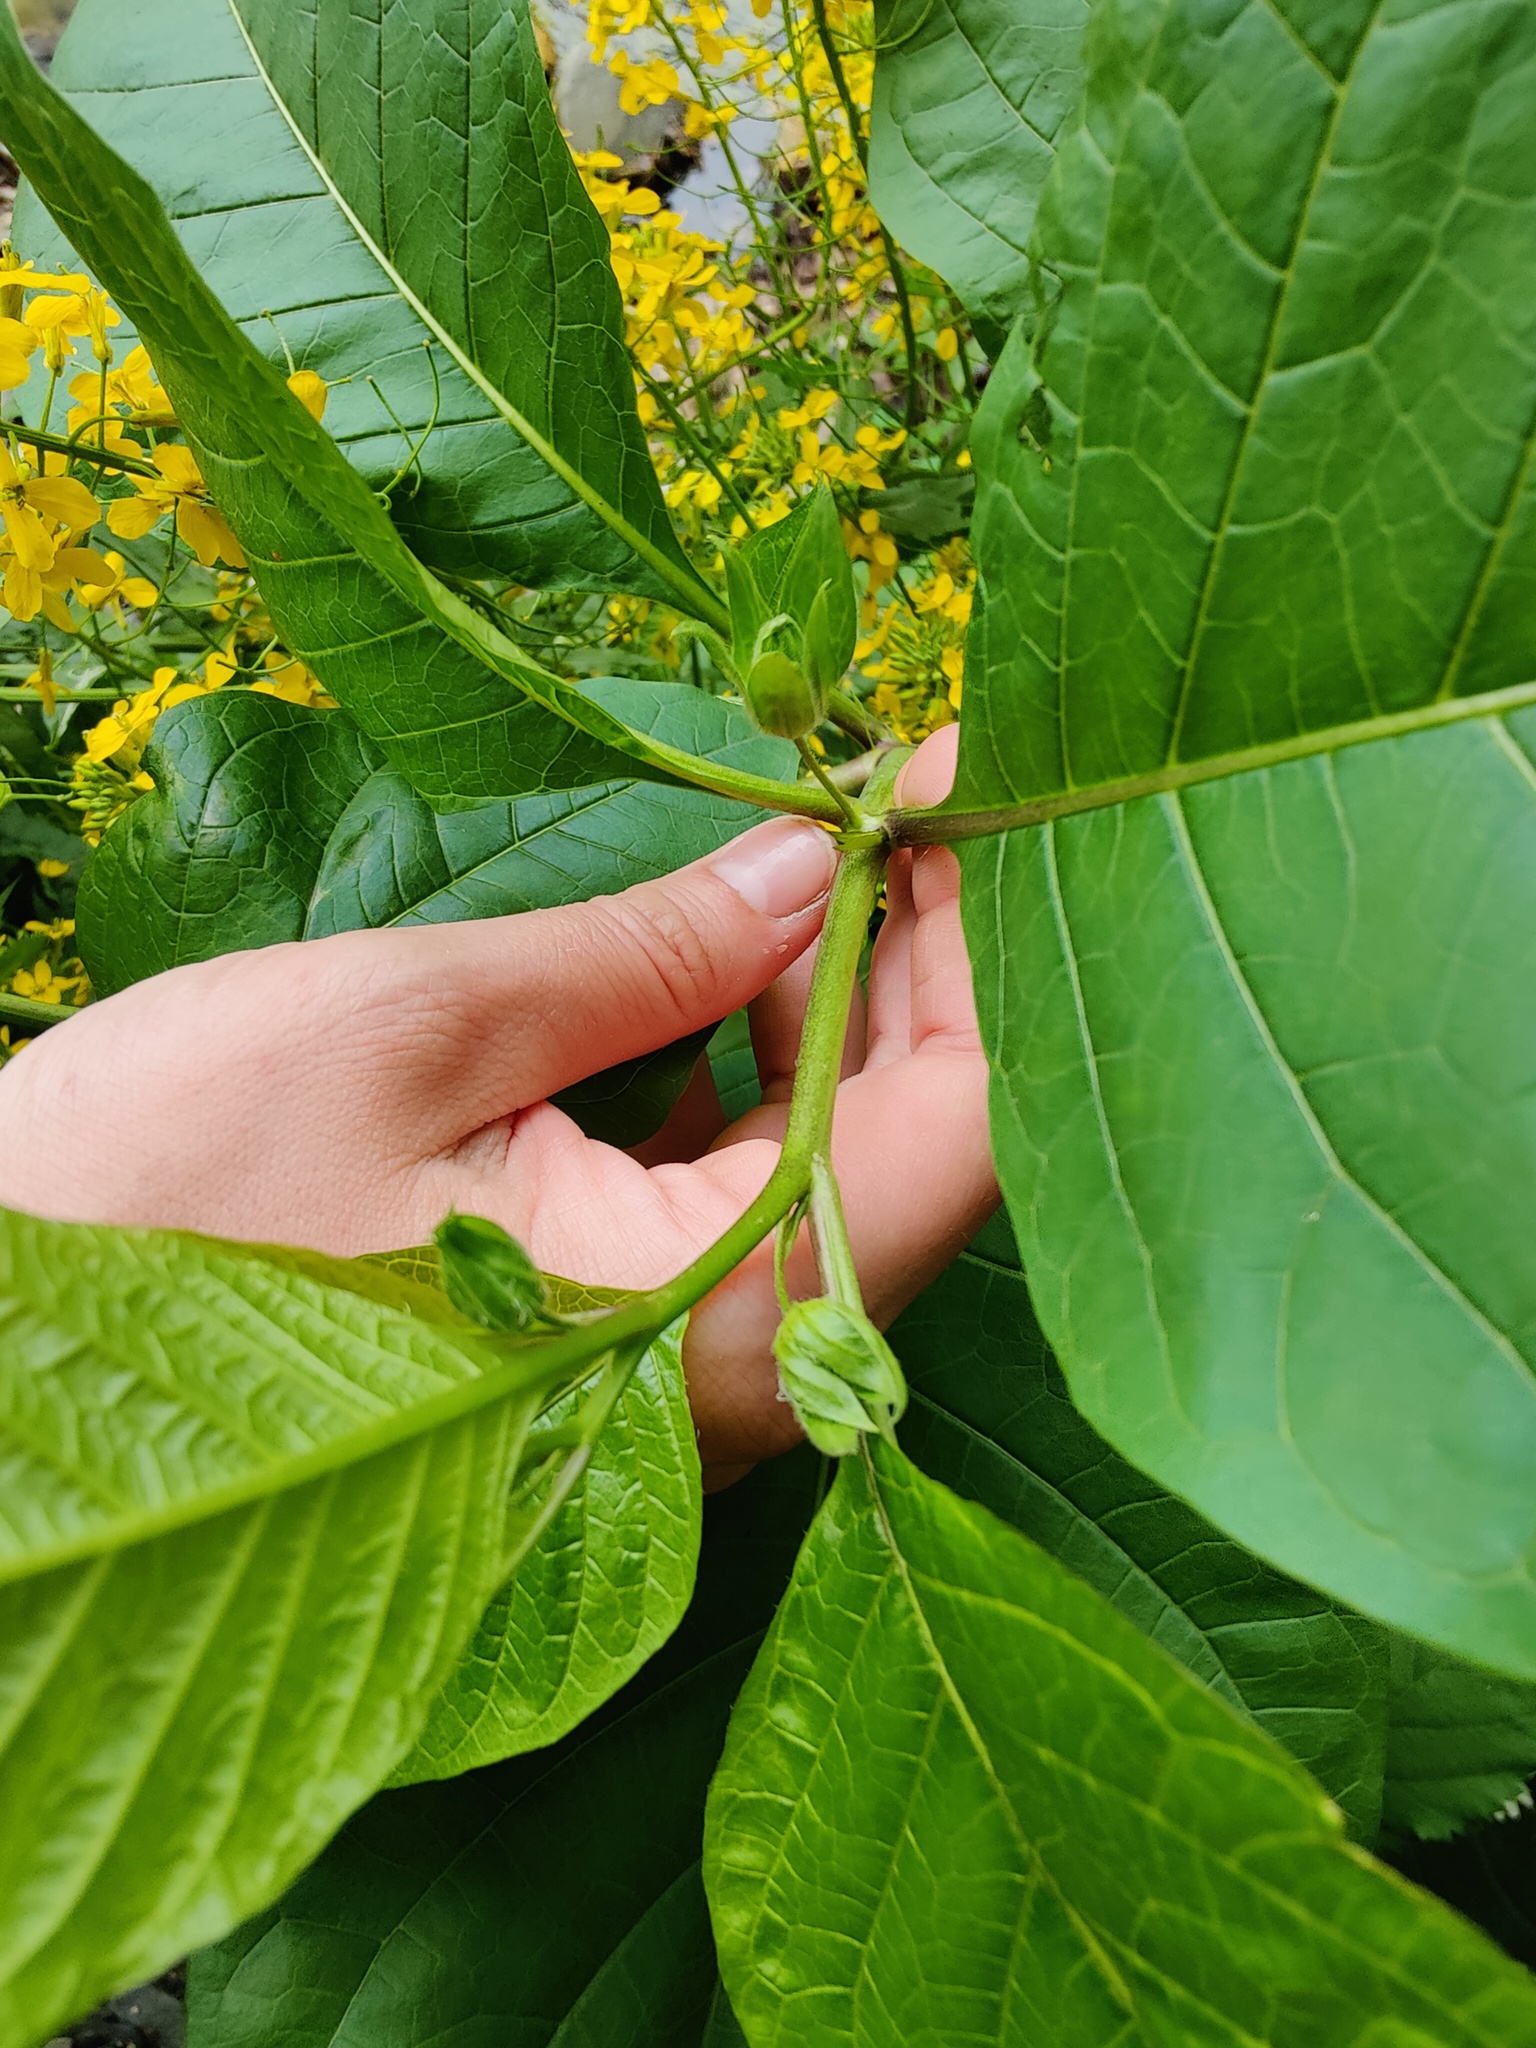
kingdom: Plantae
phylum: Tracheophyta
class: Magnoliopsida
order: Solanales
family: Solanaceae
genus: Atropa
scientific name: Atropa belladonna
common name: Deadly nightshade
